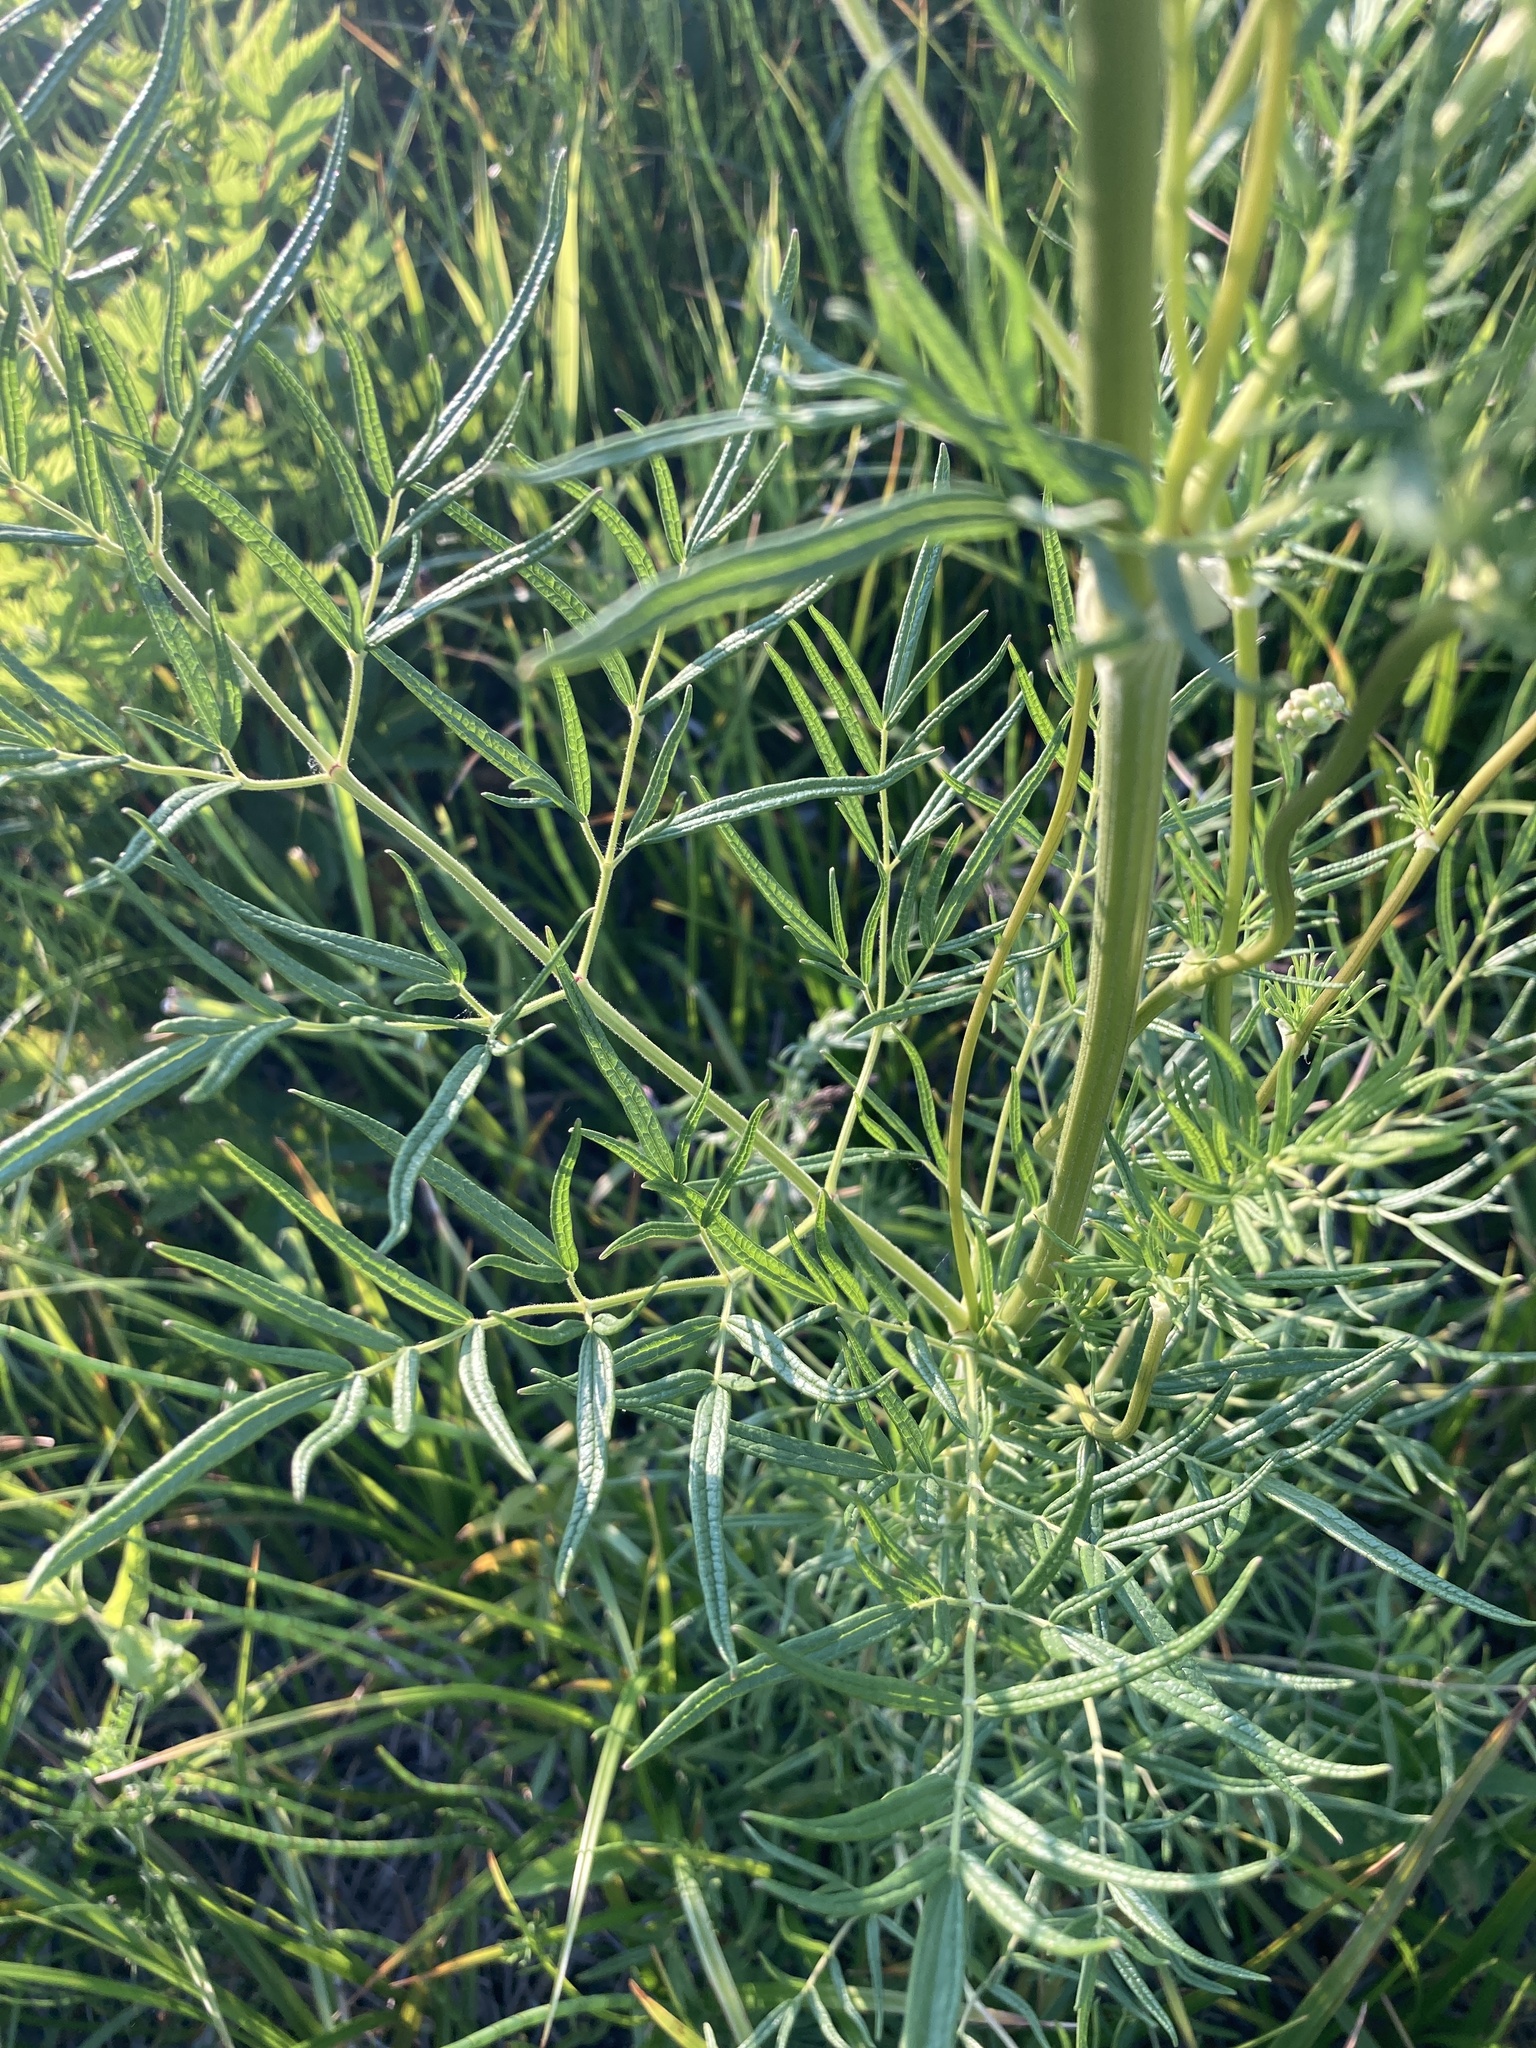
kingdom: Plantae
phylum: Tracheophyta
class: Magnoliopsida
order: Ranunculales
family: Ranunculaceae
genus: Thalictrum
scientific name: Thalictrum lucidum
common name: Shining meadow-rue
